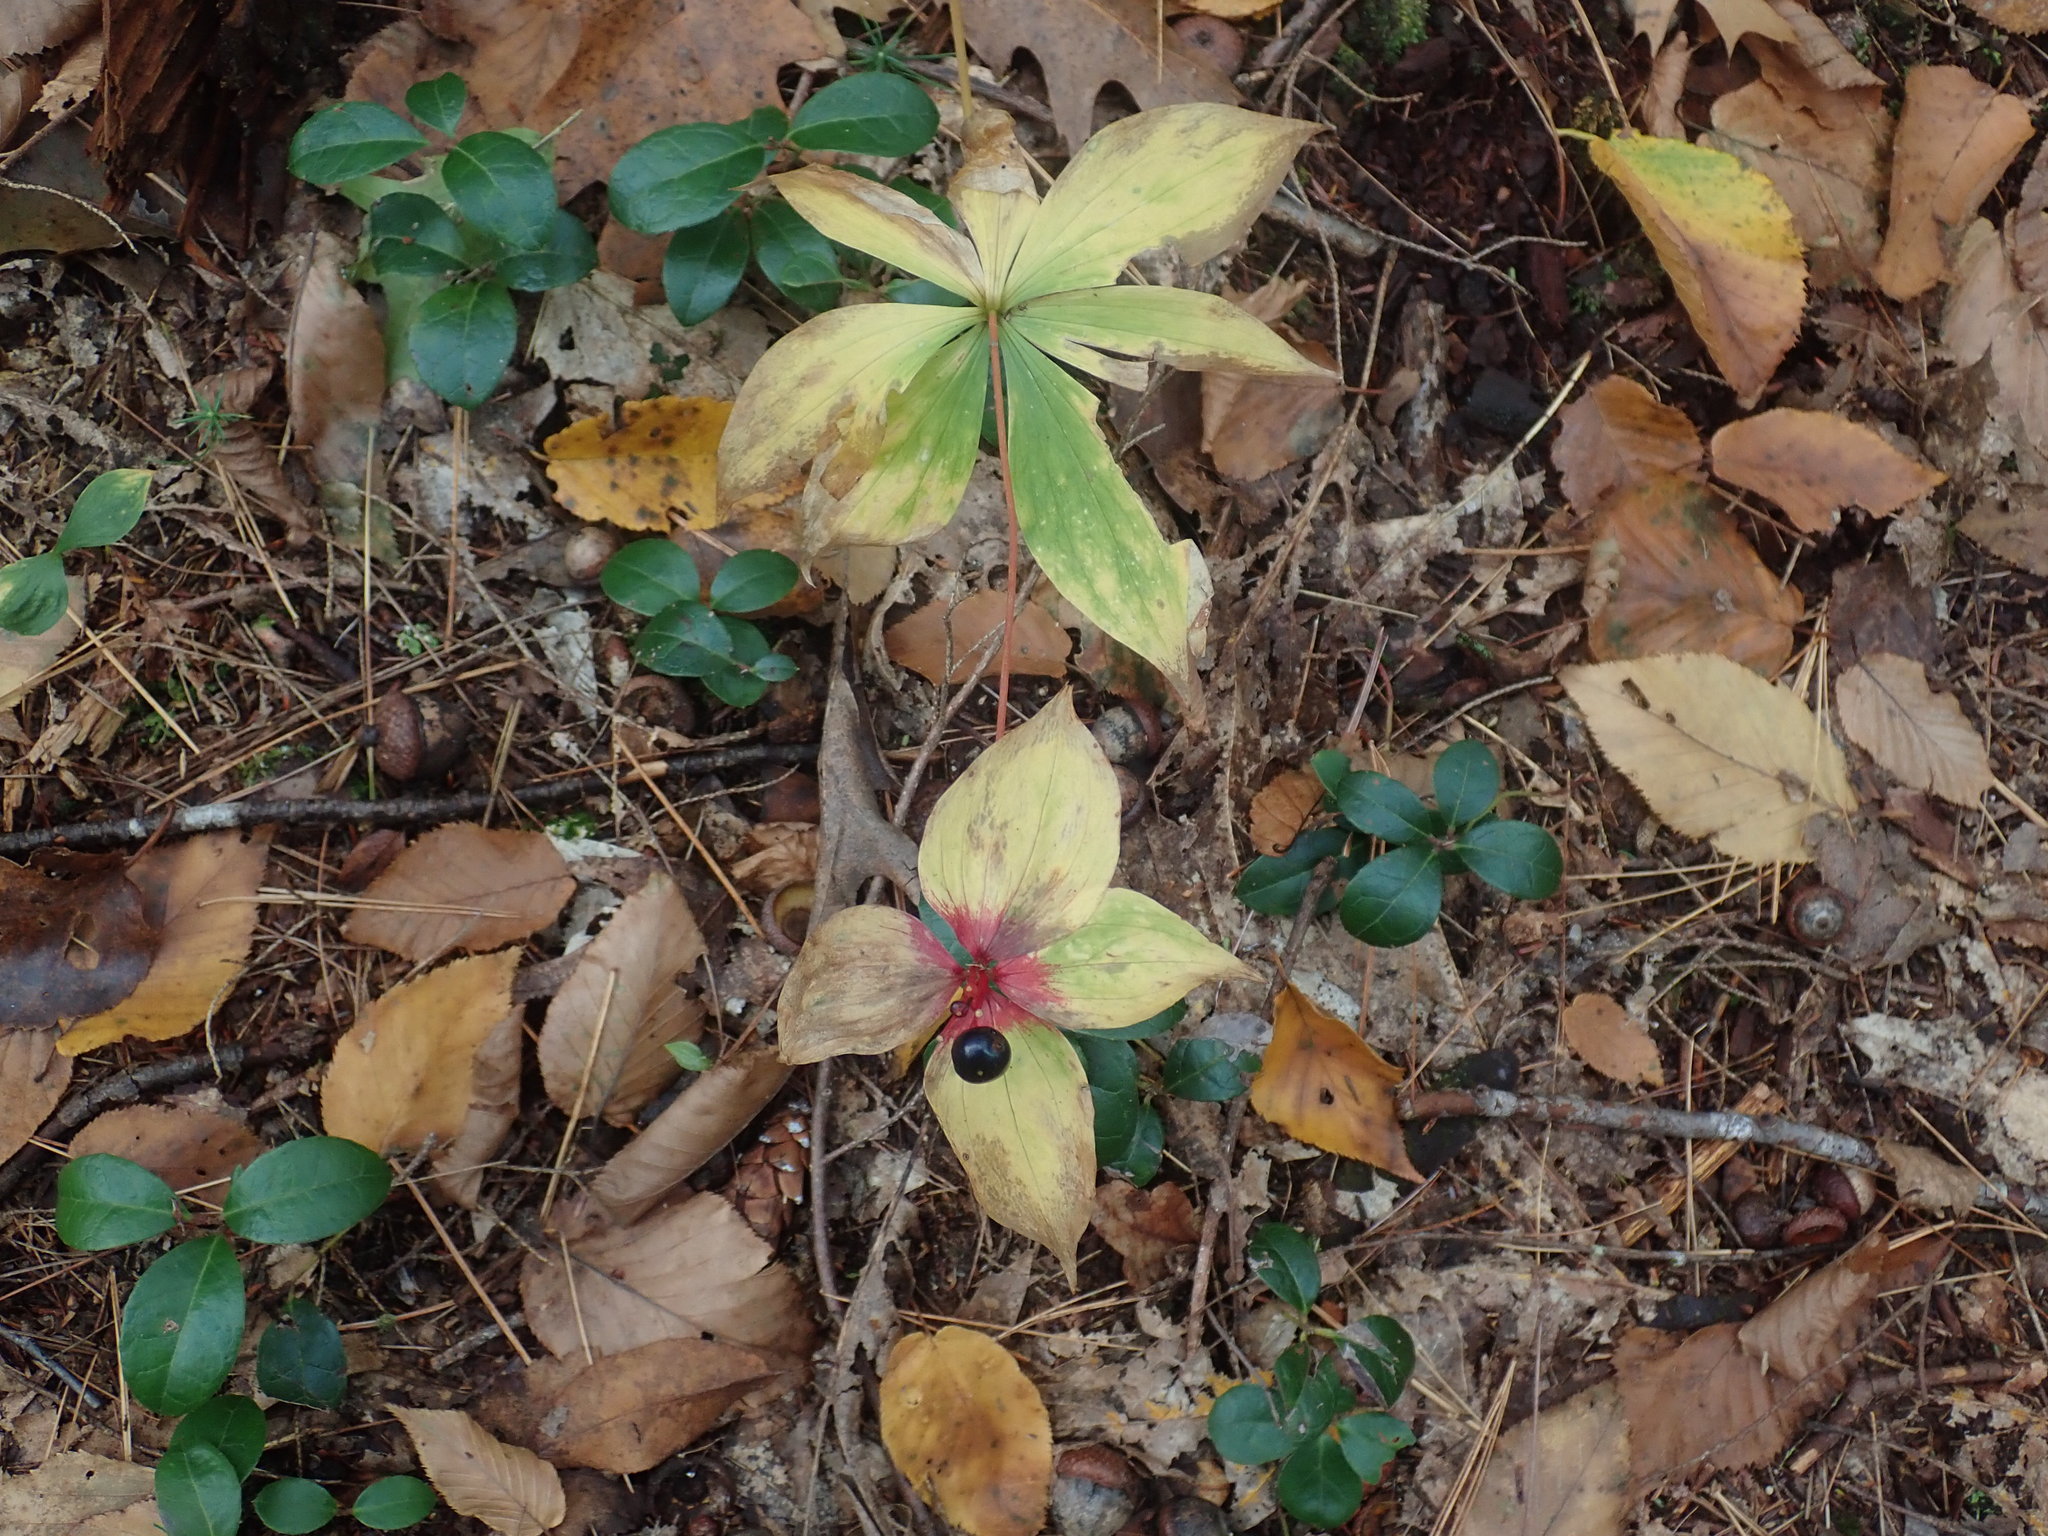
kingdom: Plantae
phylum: Tracheophyta
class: Liliopsida
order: Liliales
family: Liliaceae
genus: Medeola
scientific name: Medeola virginiana
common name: Indian cucumber-root
